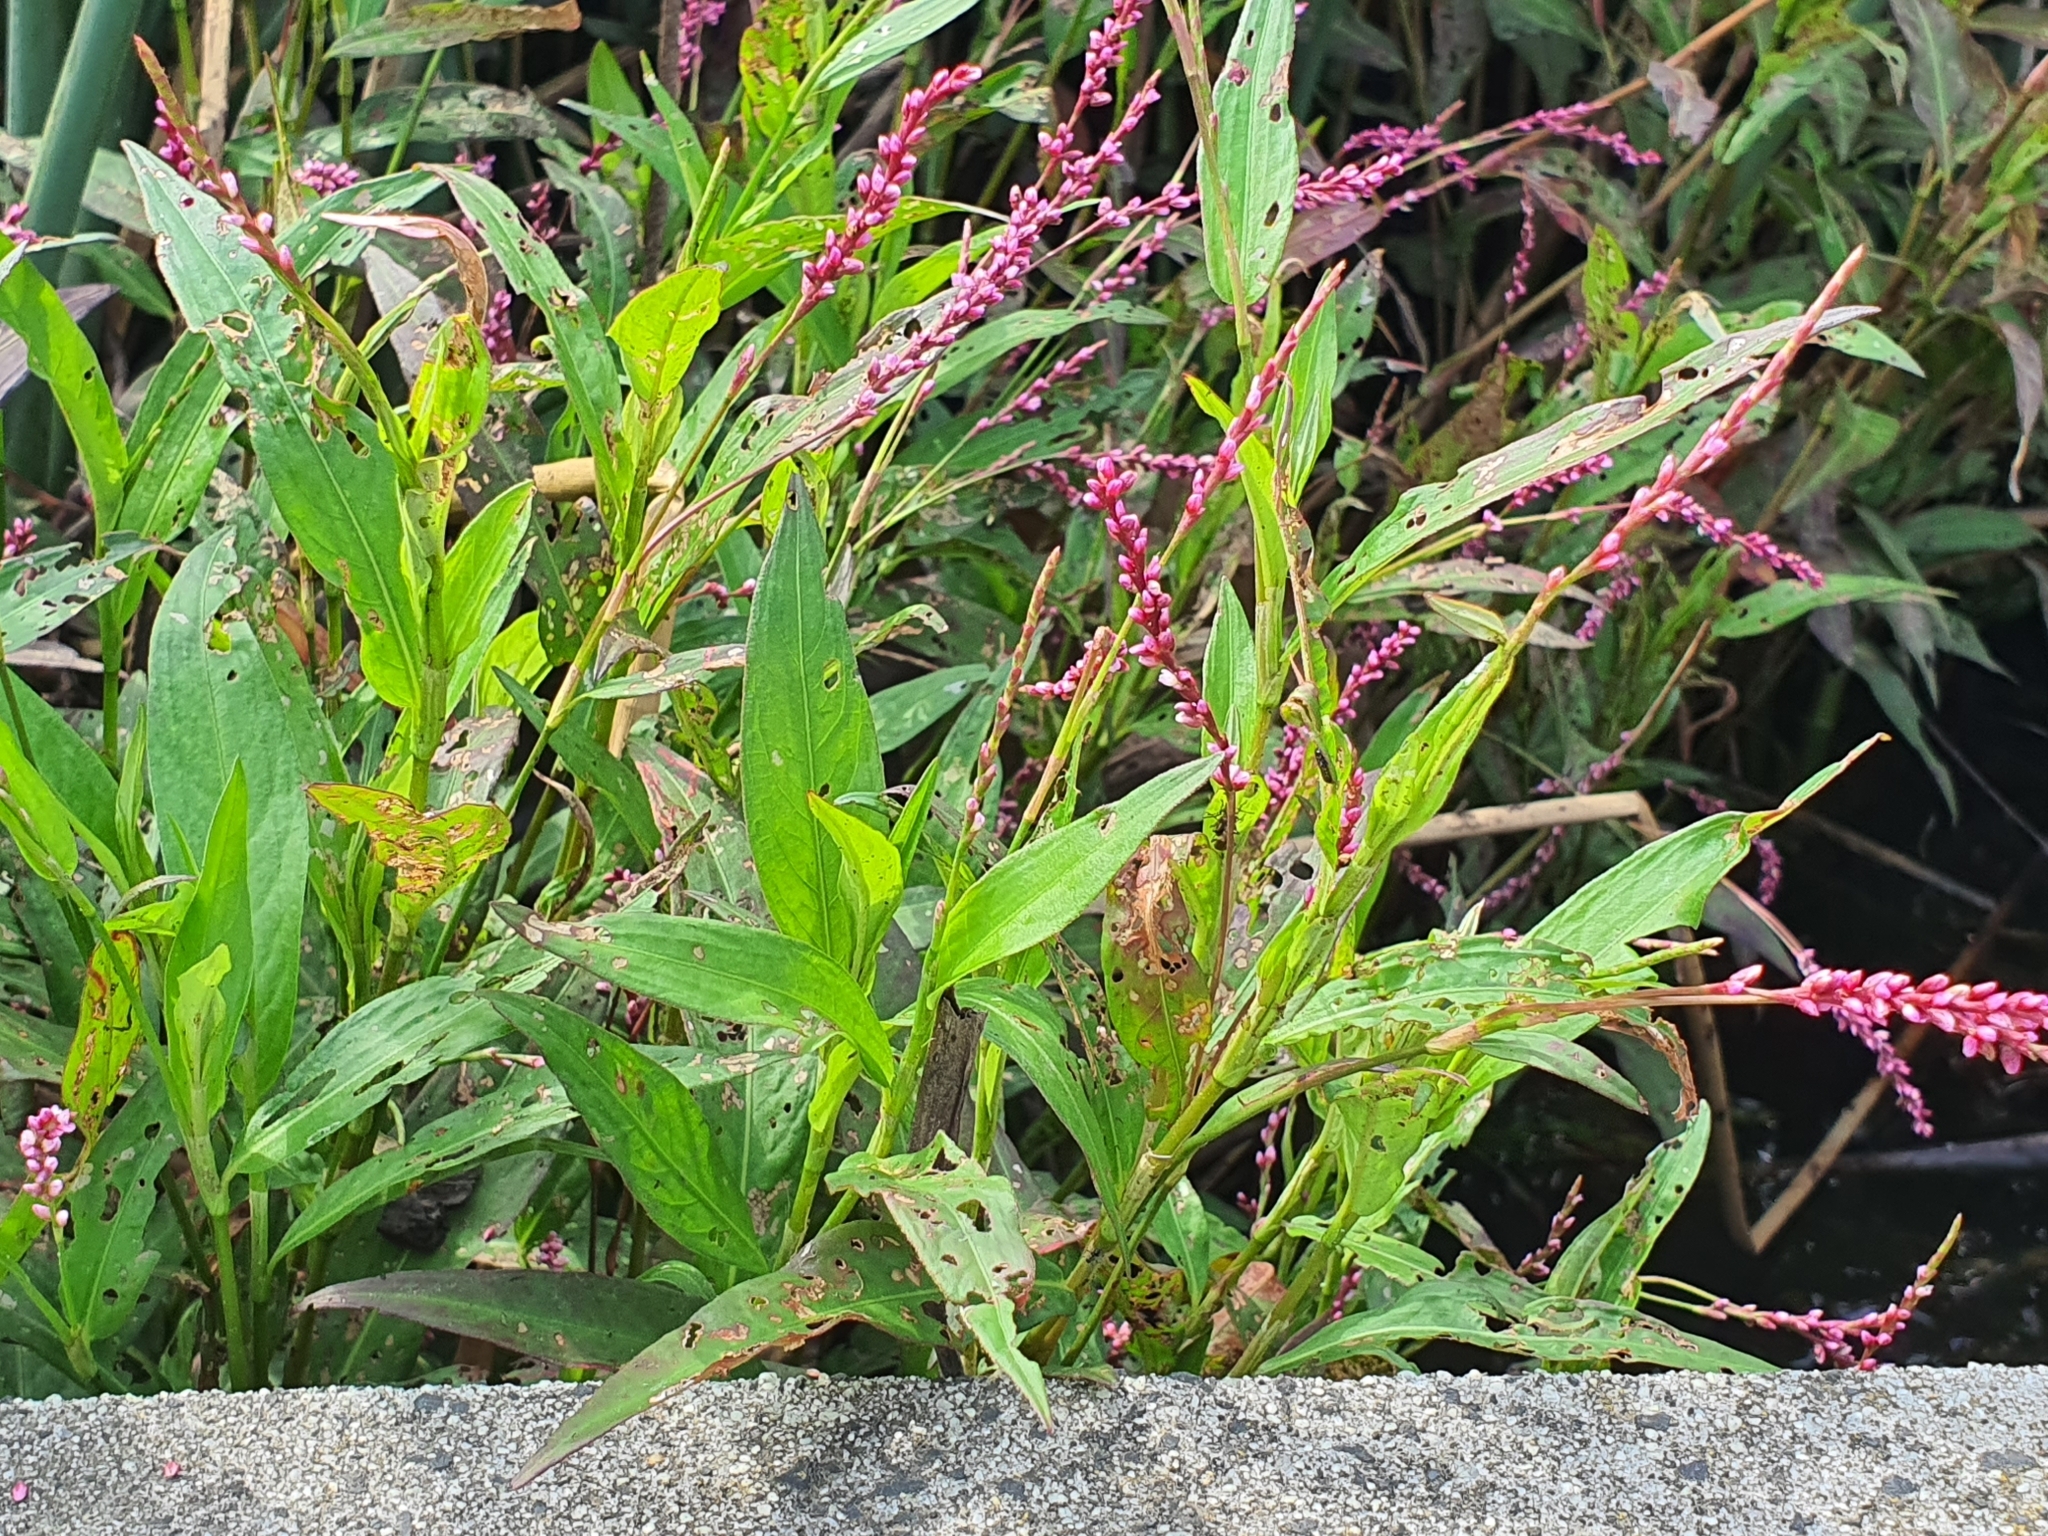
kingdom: Plantae
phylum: Tracheophyta
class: Magnoliopsida
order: Caryophyllales
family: Polygonaceae
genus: Persicaria
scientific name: Persicaria decipiens
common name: Willow-weed
